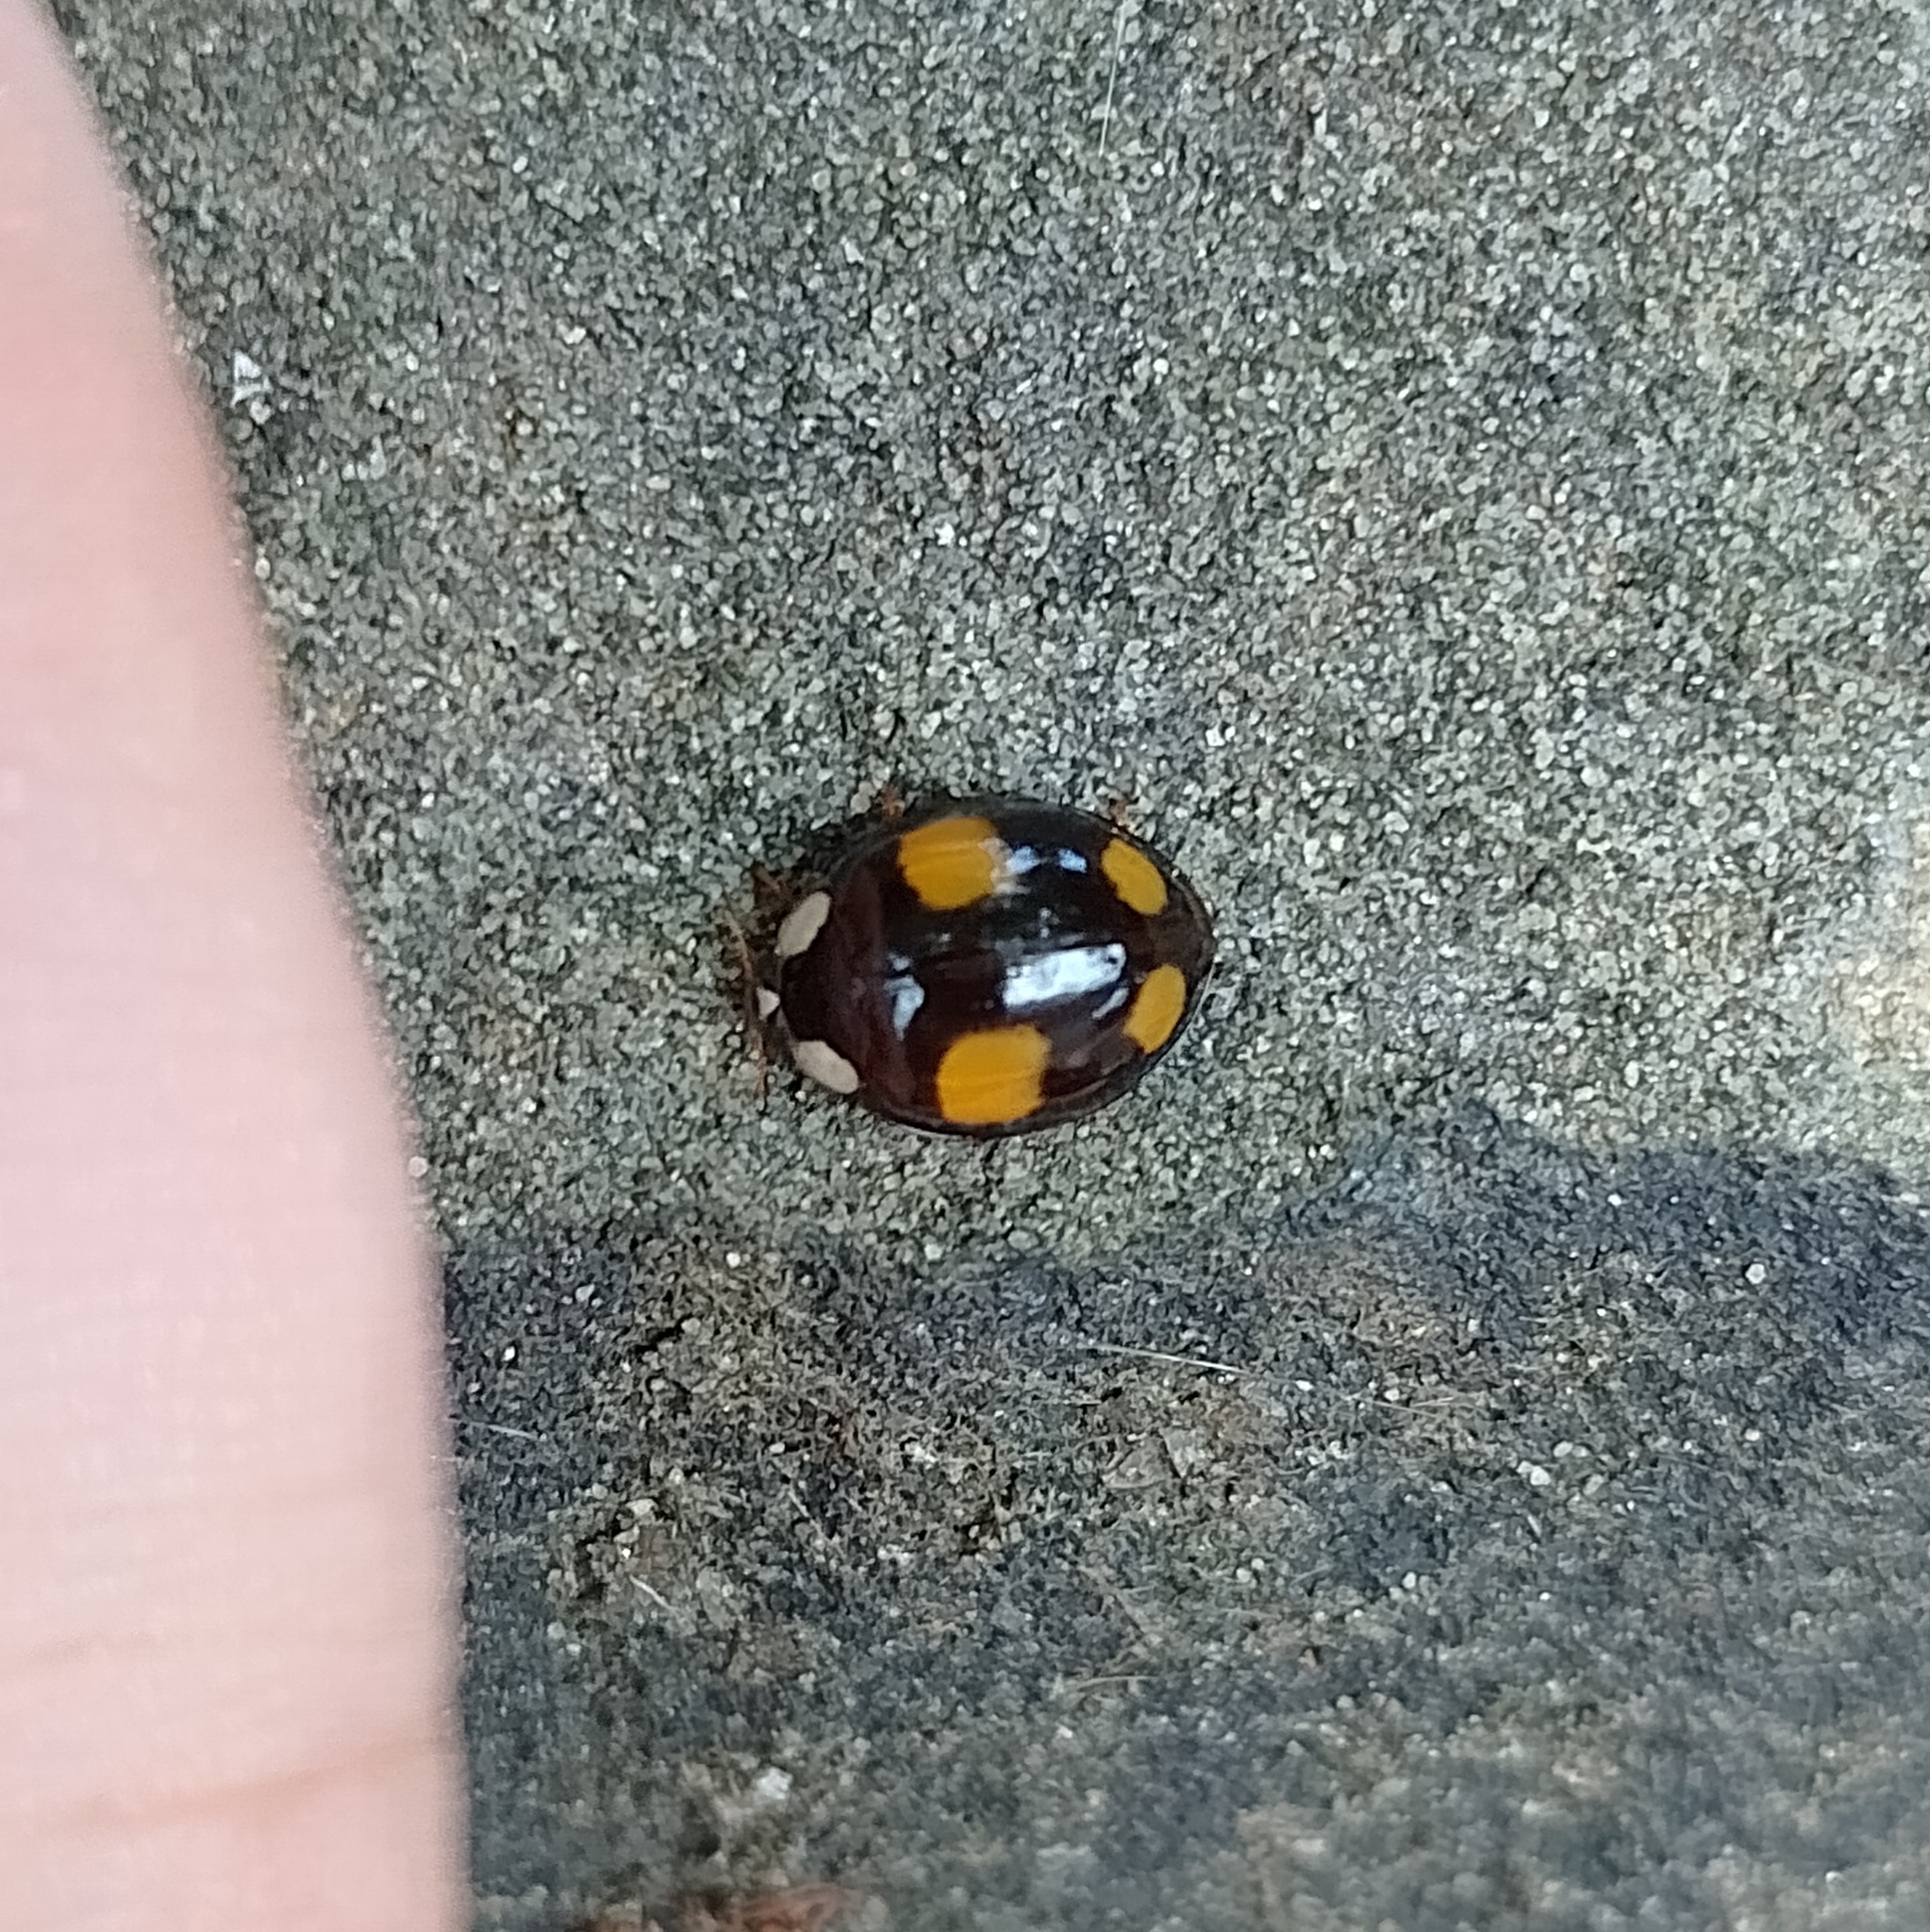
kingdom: Animalia
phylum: Arthropoda
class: Insecta
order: Coleoptera
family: Coccinellidae
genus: Harmonia
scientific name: Harmonia axyridis
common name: Harlequin ladybird
